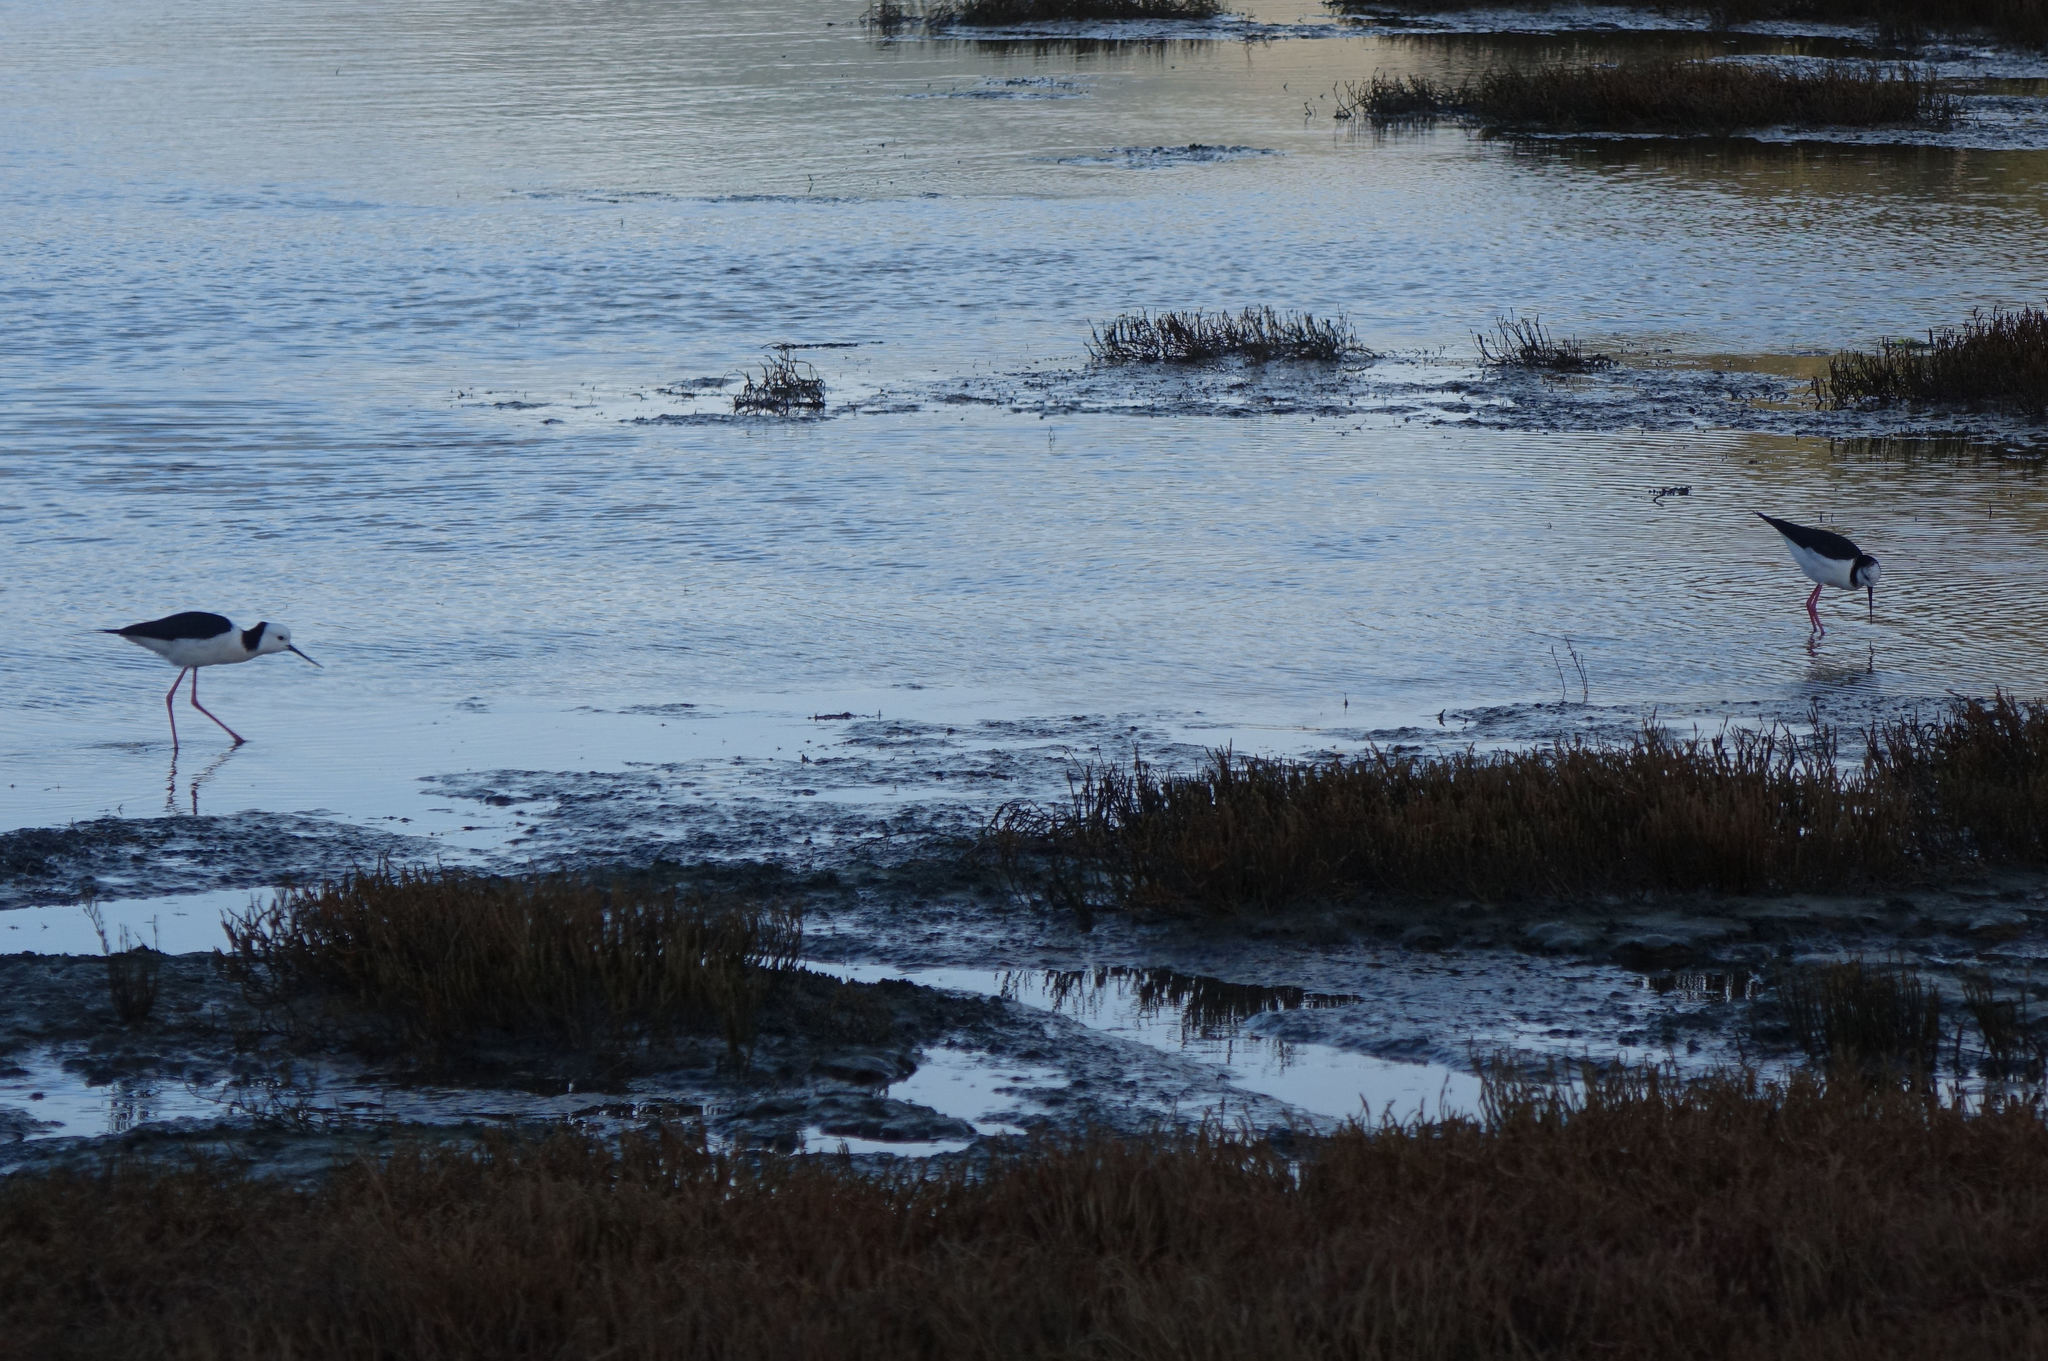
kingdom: Animalia
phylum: Chordata
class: Aves
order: Charadriiformes
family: Recurvirostridae
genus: Himantopus
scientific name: Himantopus leucocephalus
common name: White-headed stilt
